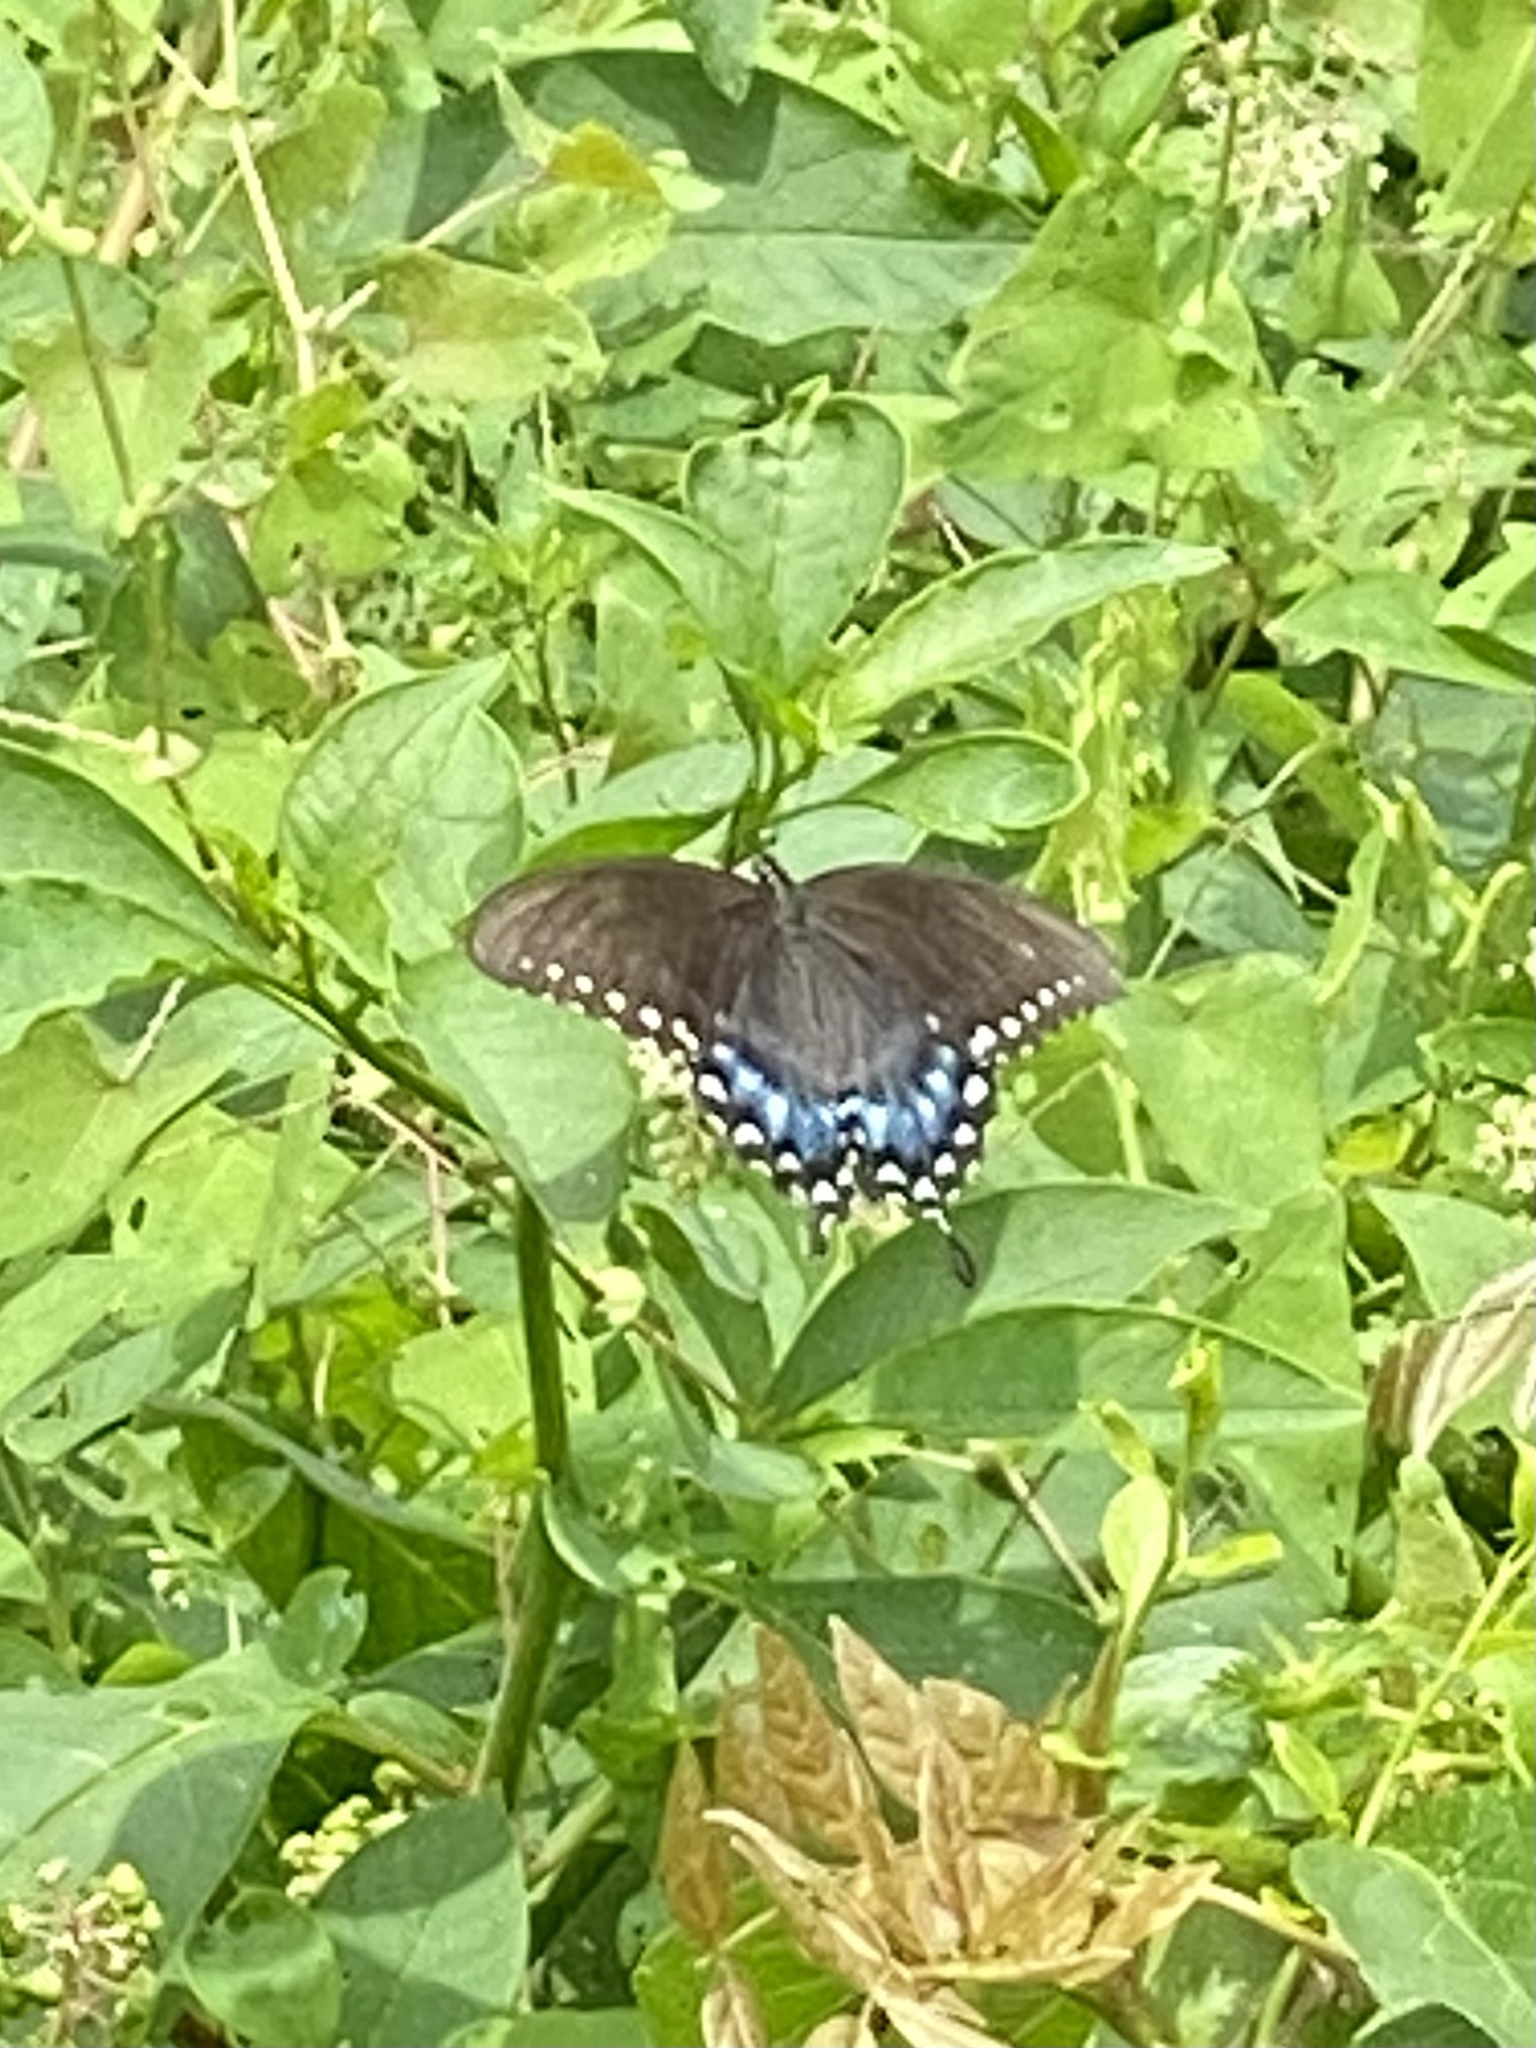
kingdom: Animalia
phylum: Arthropoda
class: Insecta
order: Lepidoptera
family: Papilionidae
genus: Papilio
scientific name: Papilio troilus
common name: Spicebush swallowtail
